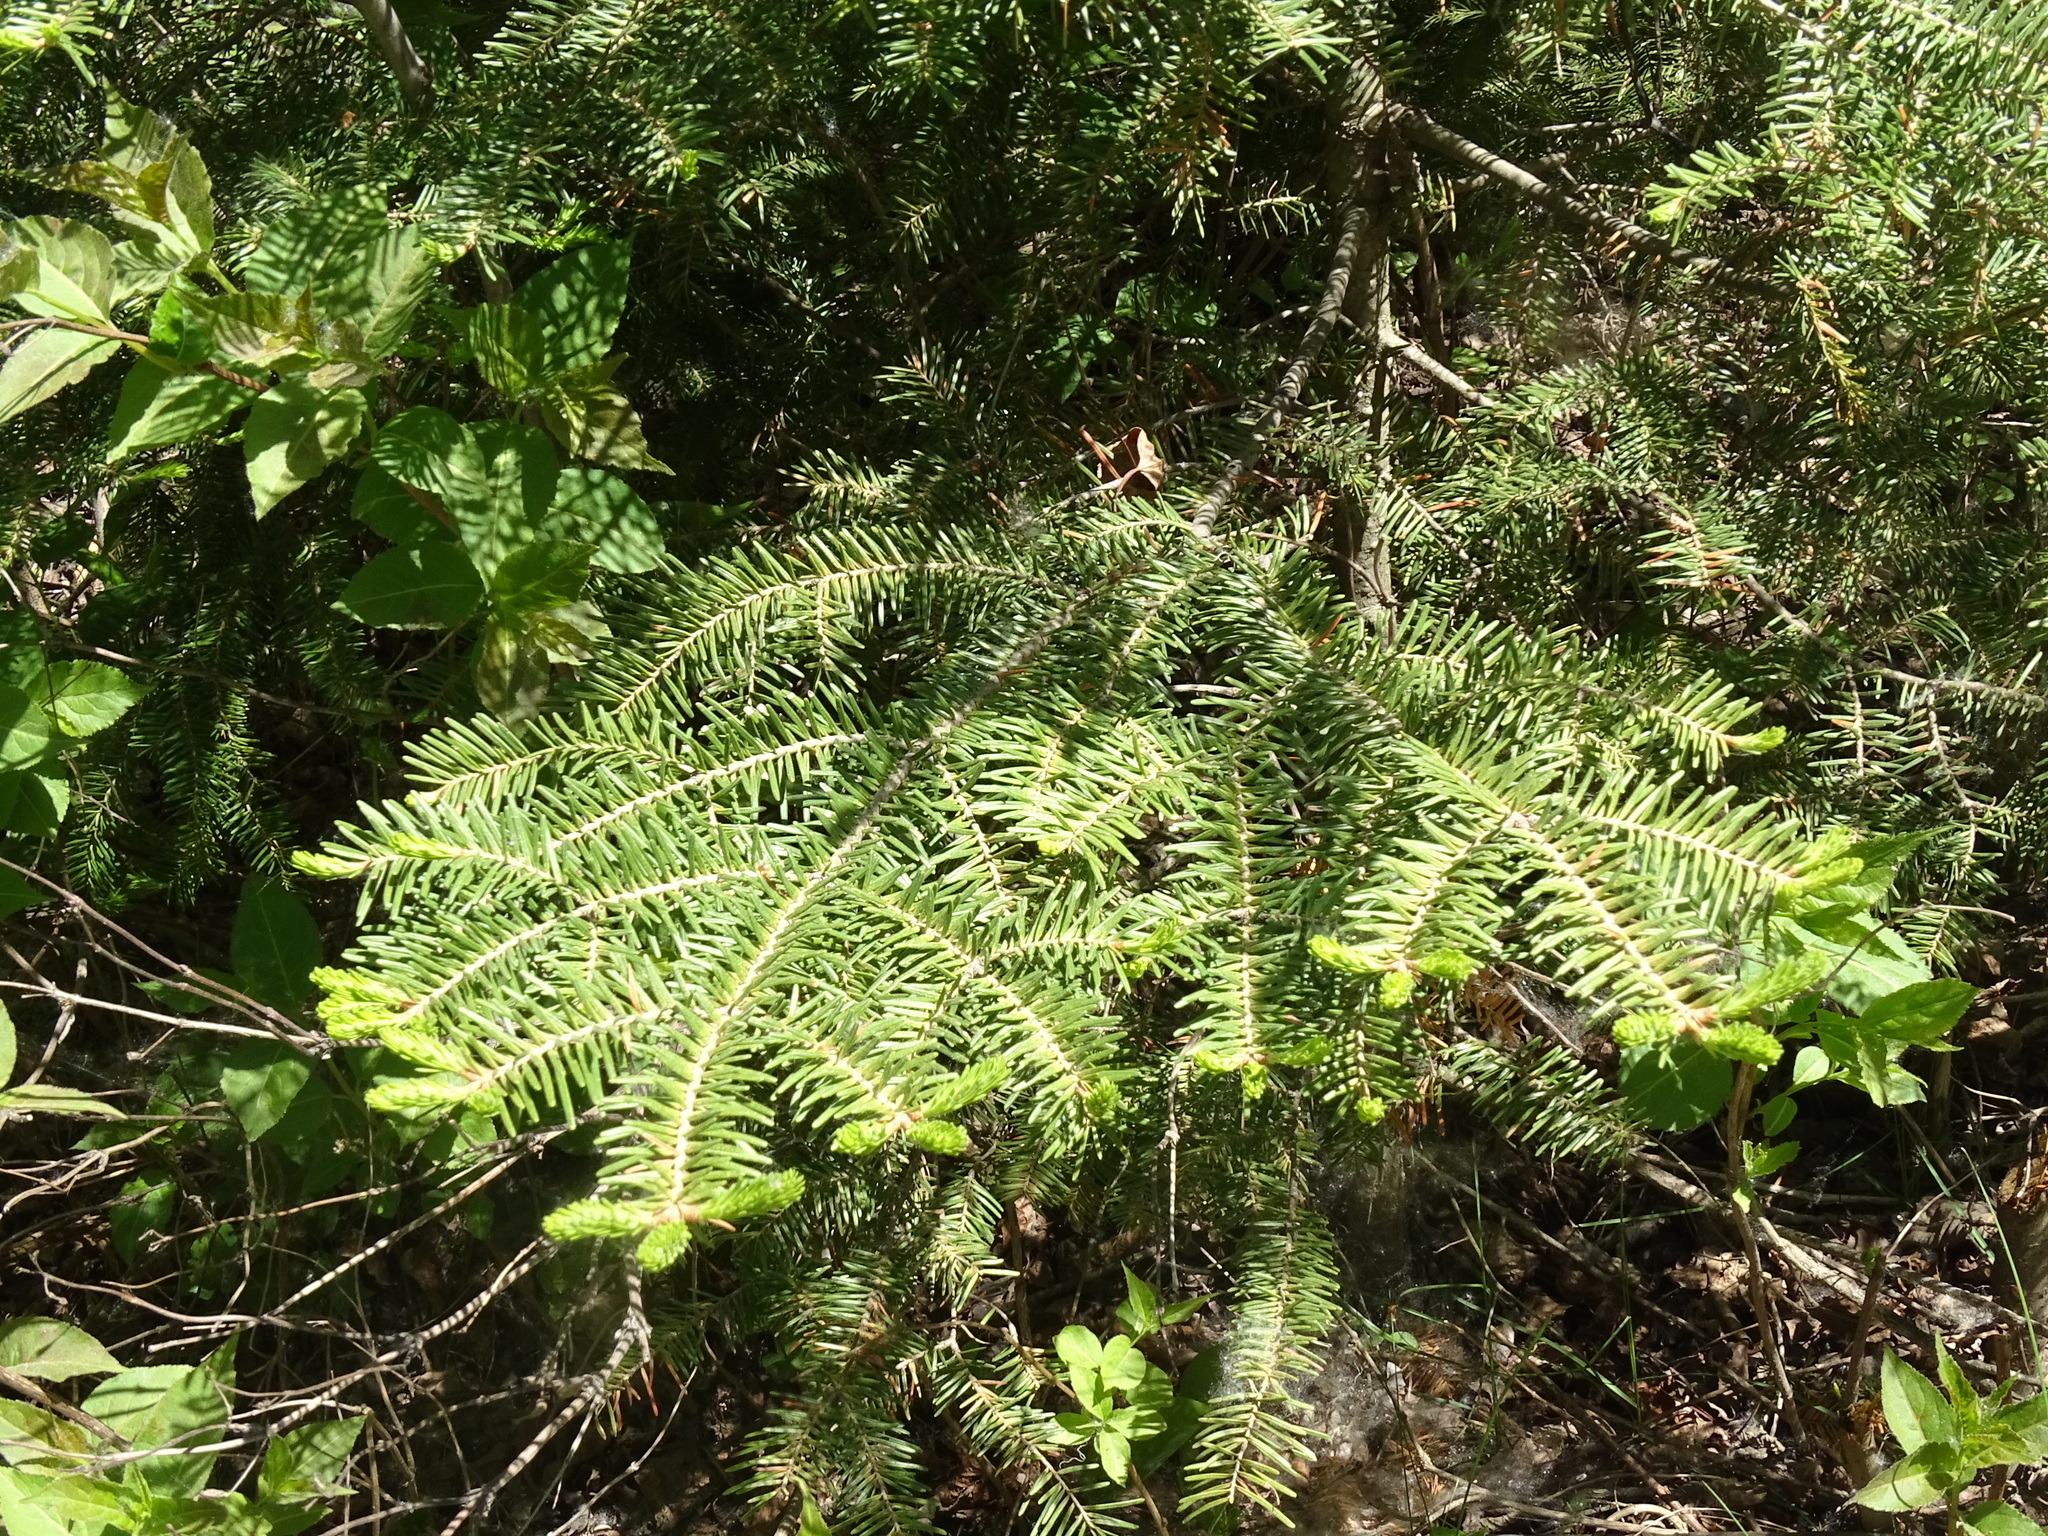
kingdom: Plantae
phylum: Tracheophyta
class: Pinopsida
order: Pinales
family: Pinaceae
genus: Abies
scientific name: Abies balsamea
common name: Balsam fir
